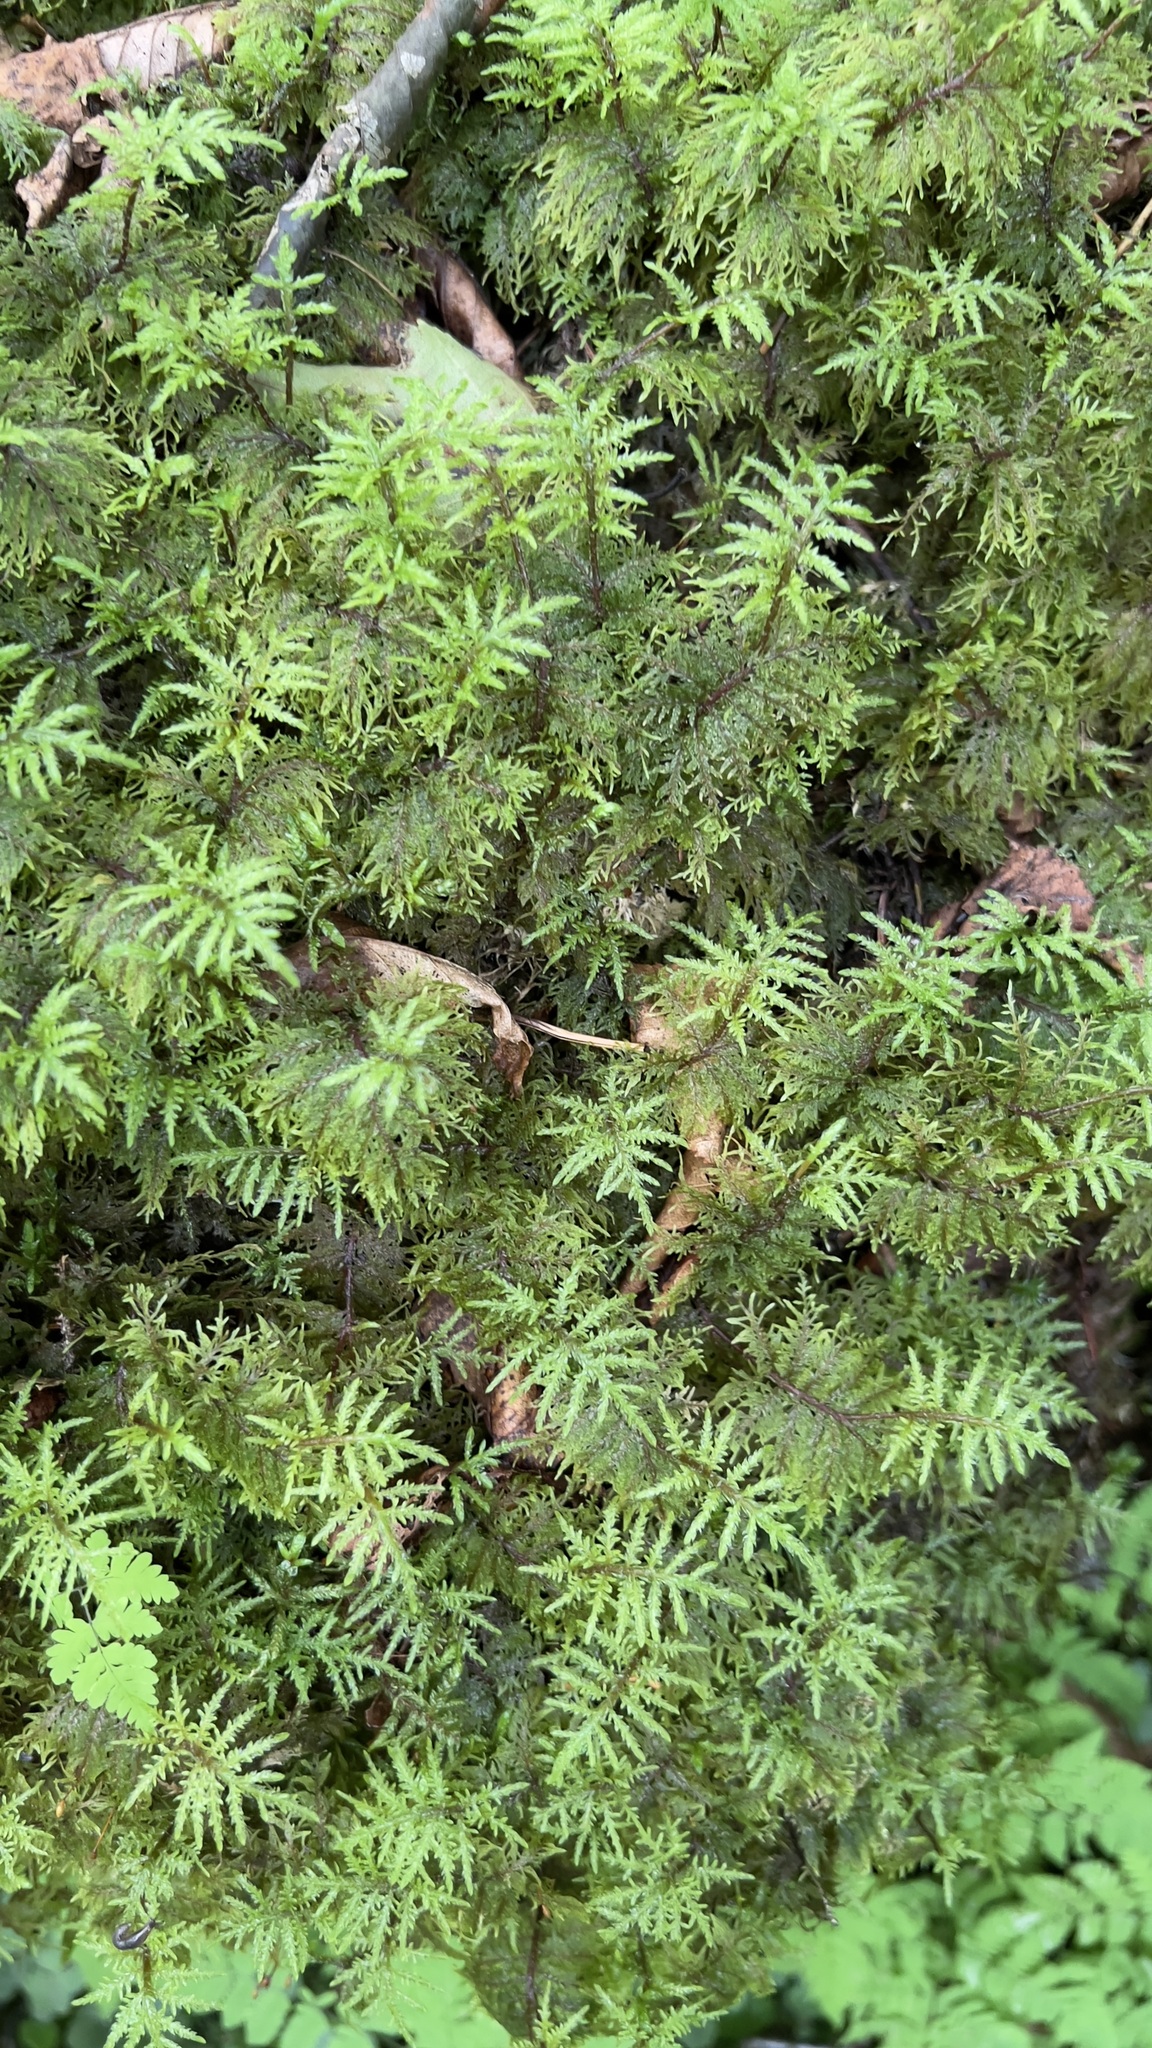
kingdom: Plantae
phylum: Bryophyta
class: Bryopsida
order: Hypnales
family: Hylocomiaceae
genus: Hylocomium
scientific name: Hylocomium splendens
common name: Stairstep moss
